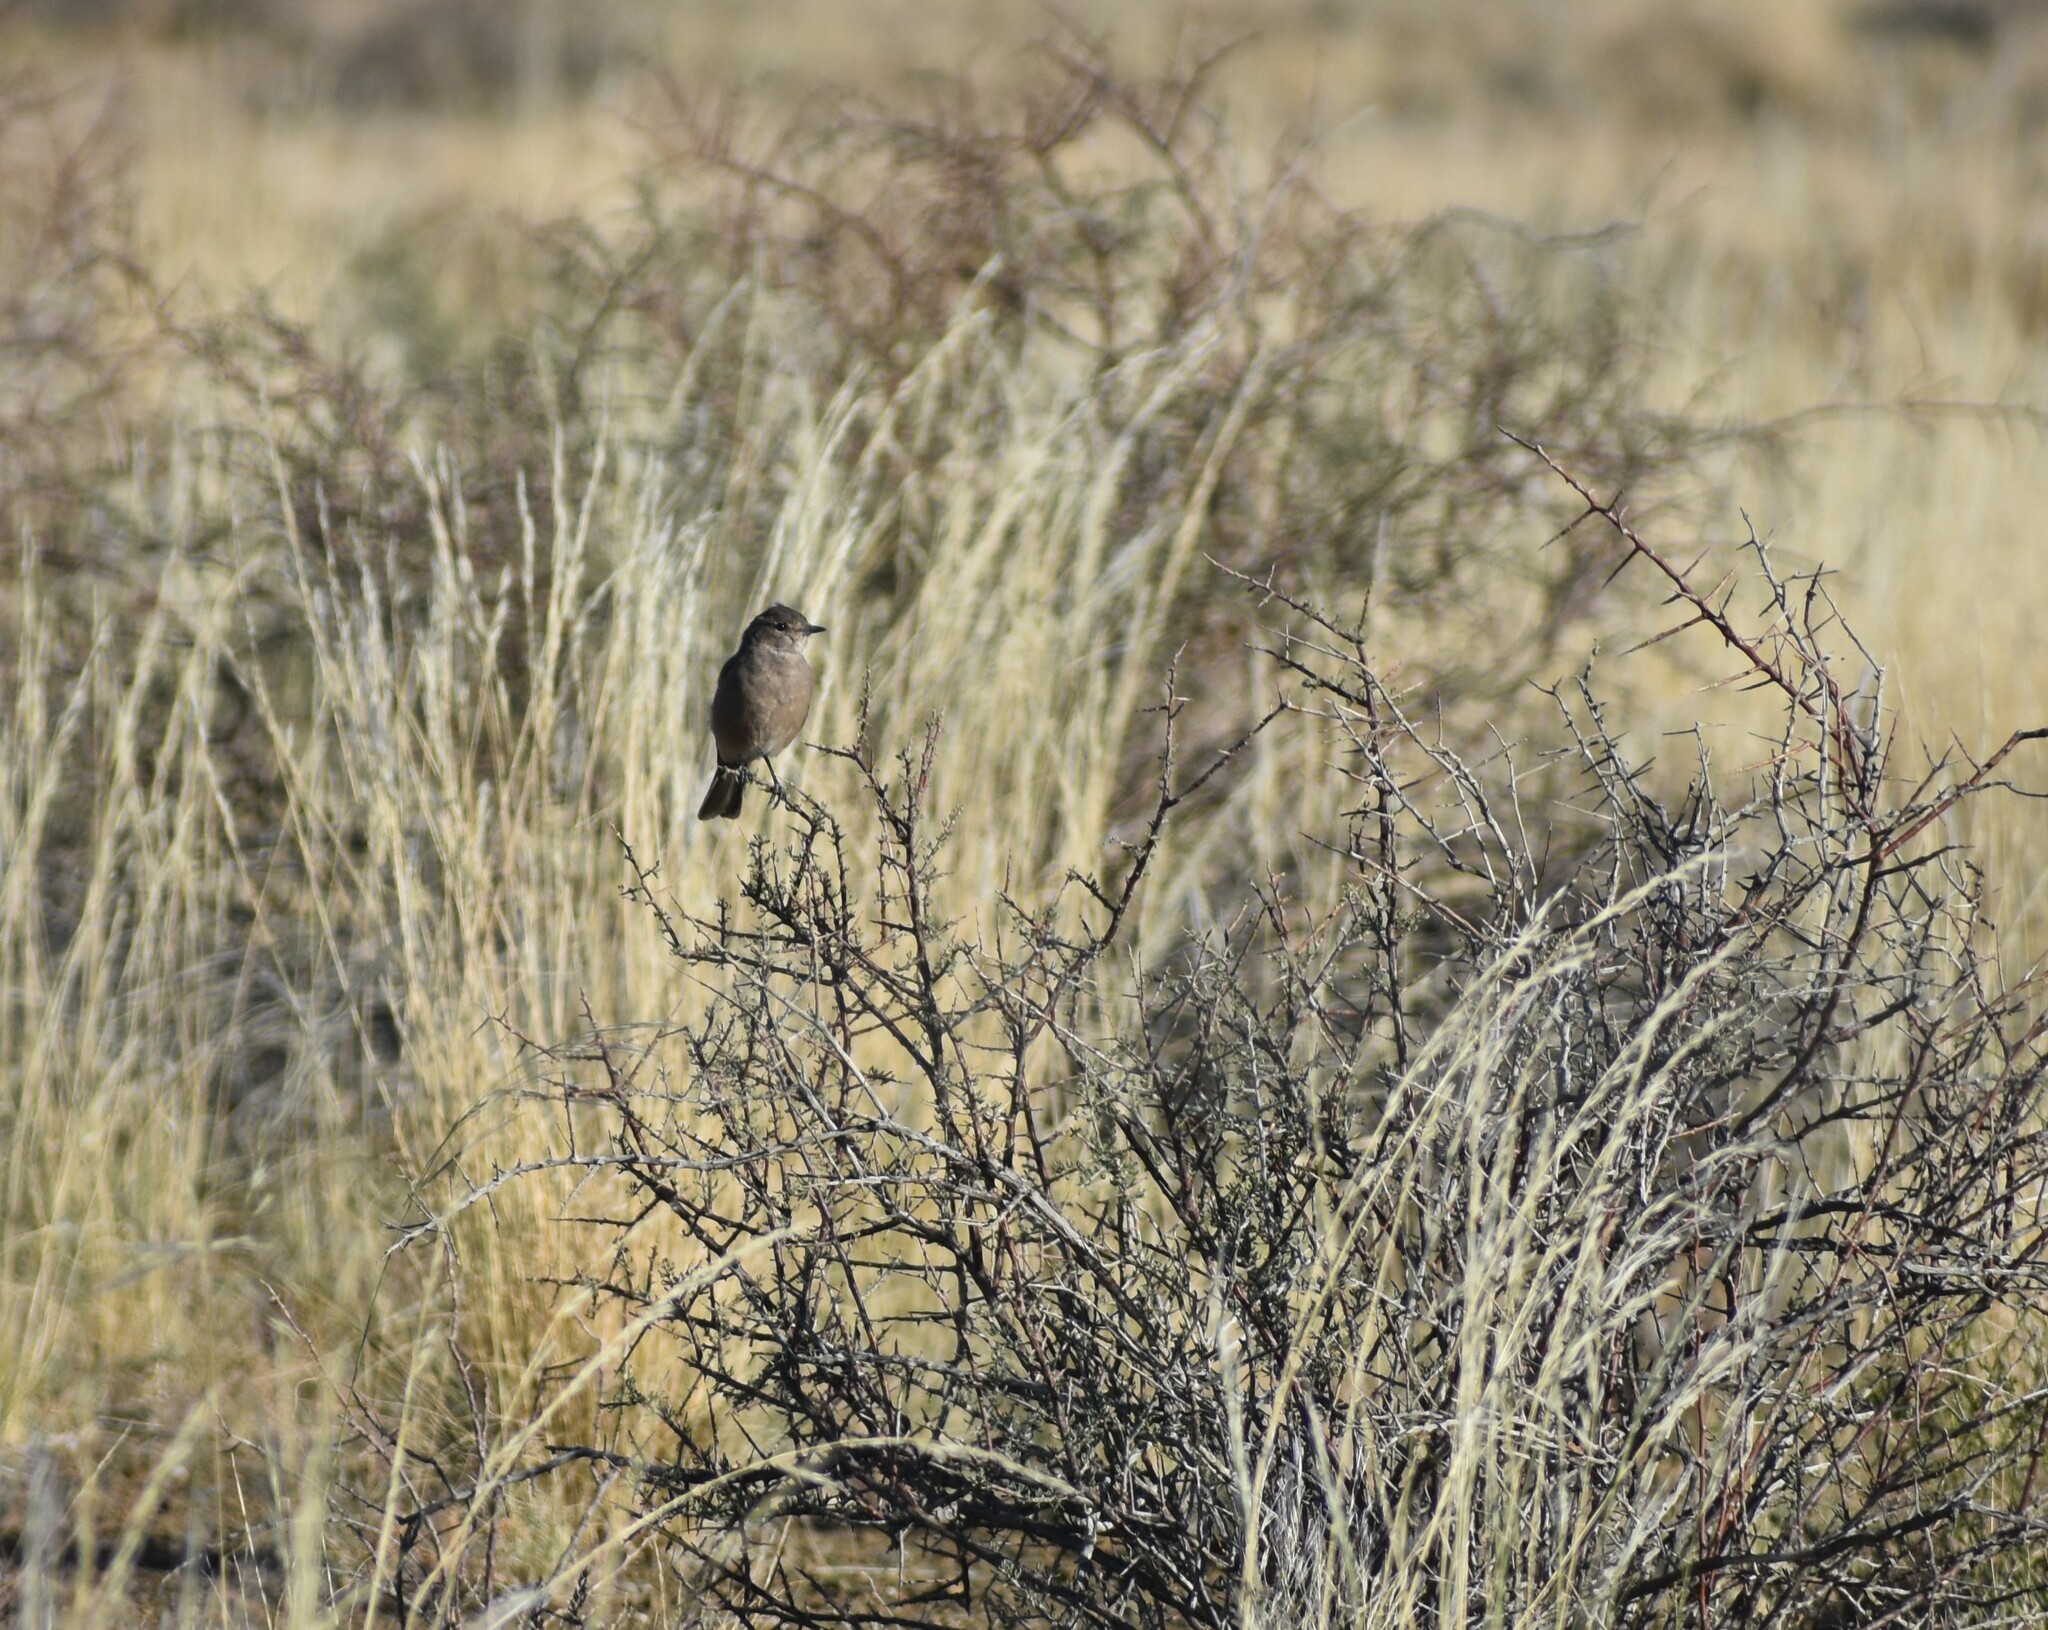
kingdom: Animalia
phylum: Chordata
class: Aves
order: Passeriformes
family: Muscicapidae
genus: Bradornis
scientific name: Bradornis infuscatus
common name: Chat flycatcher
